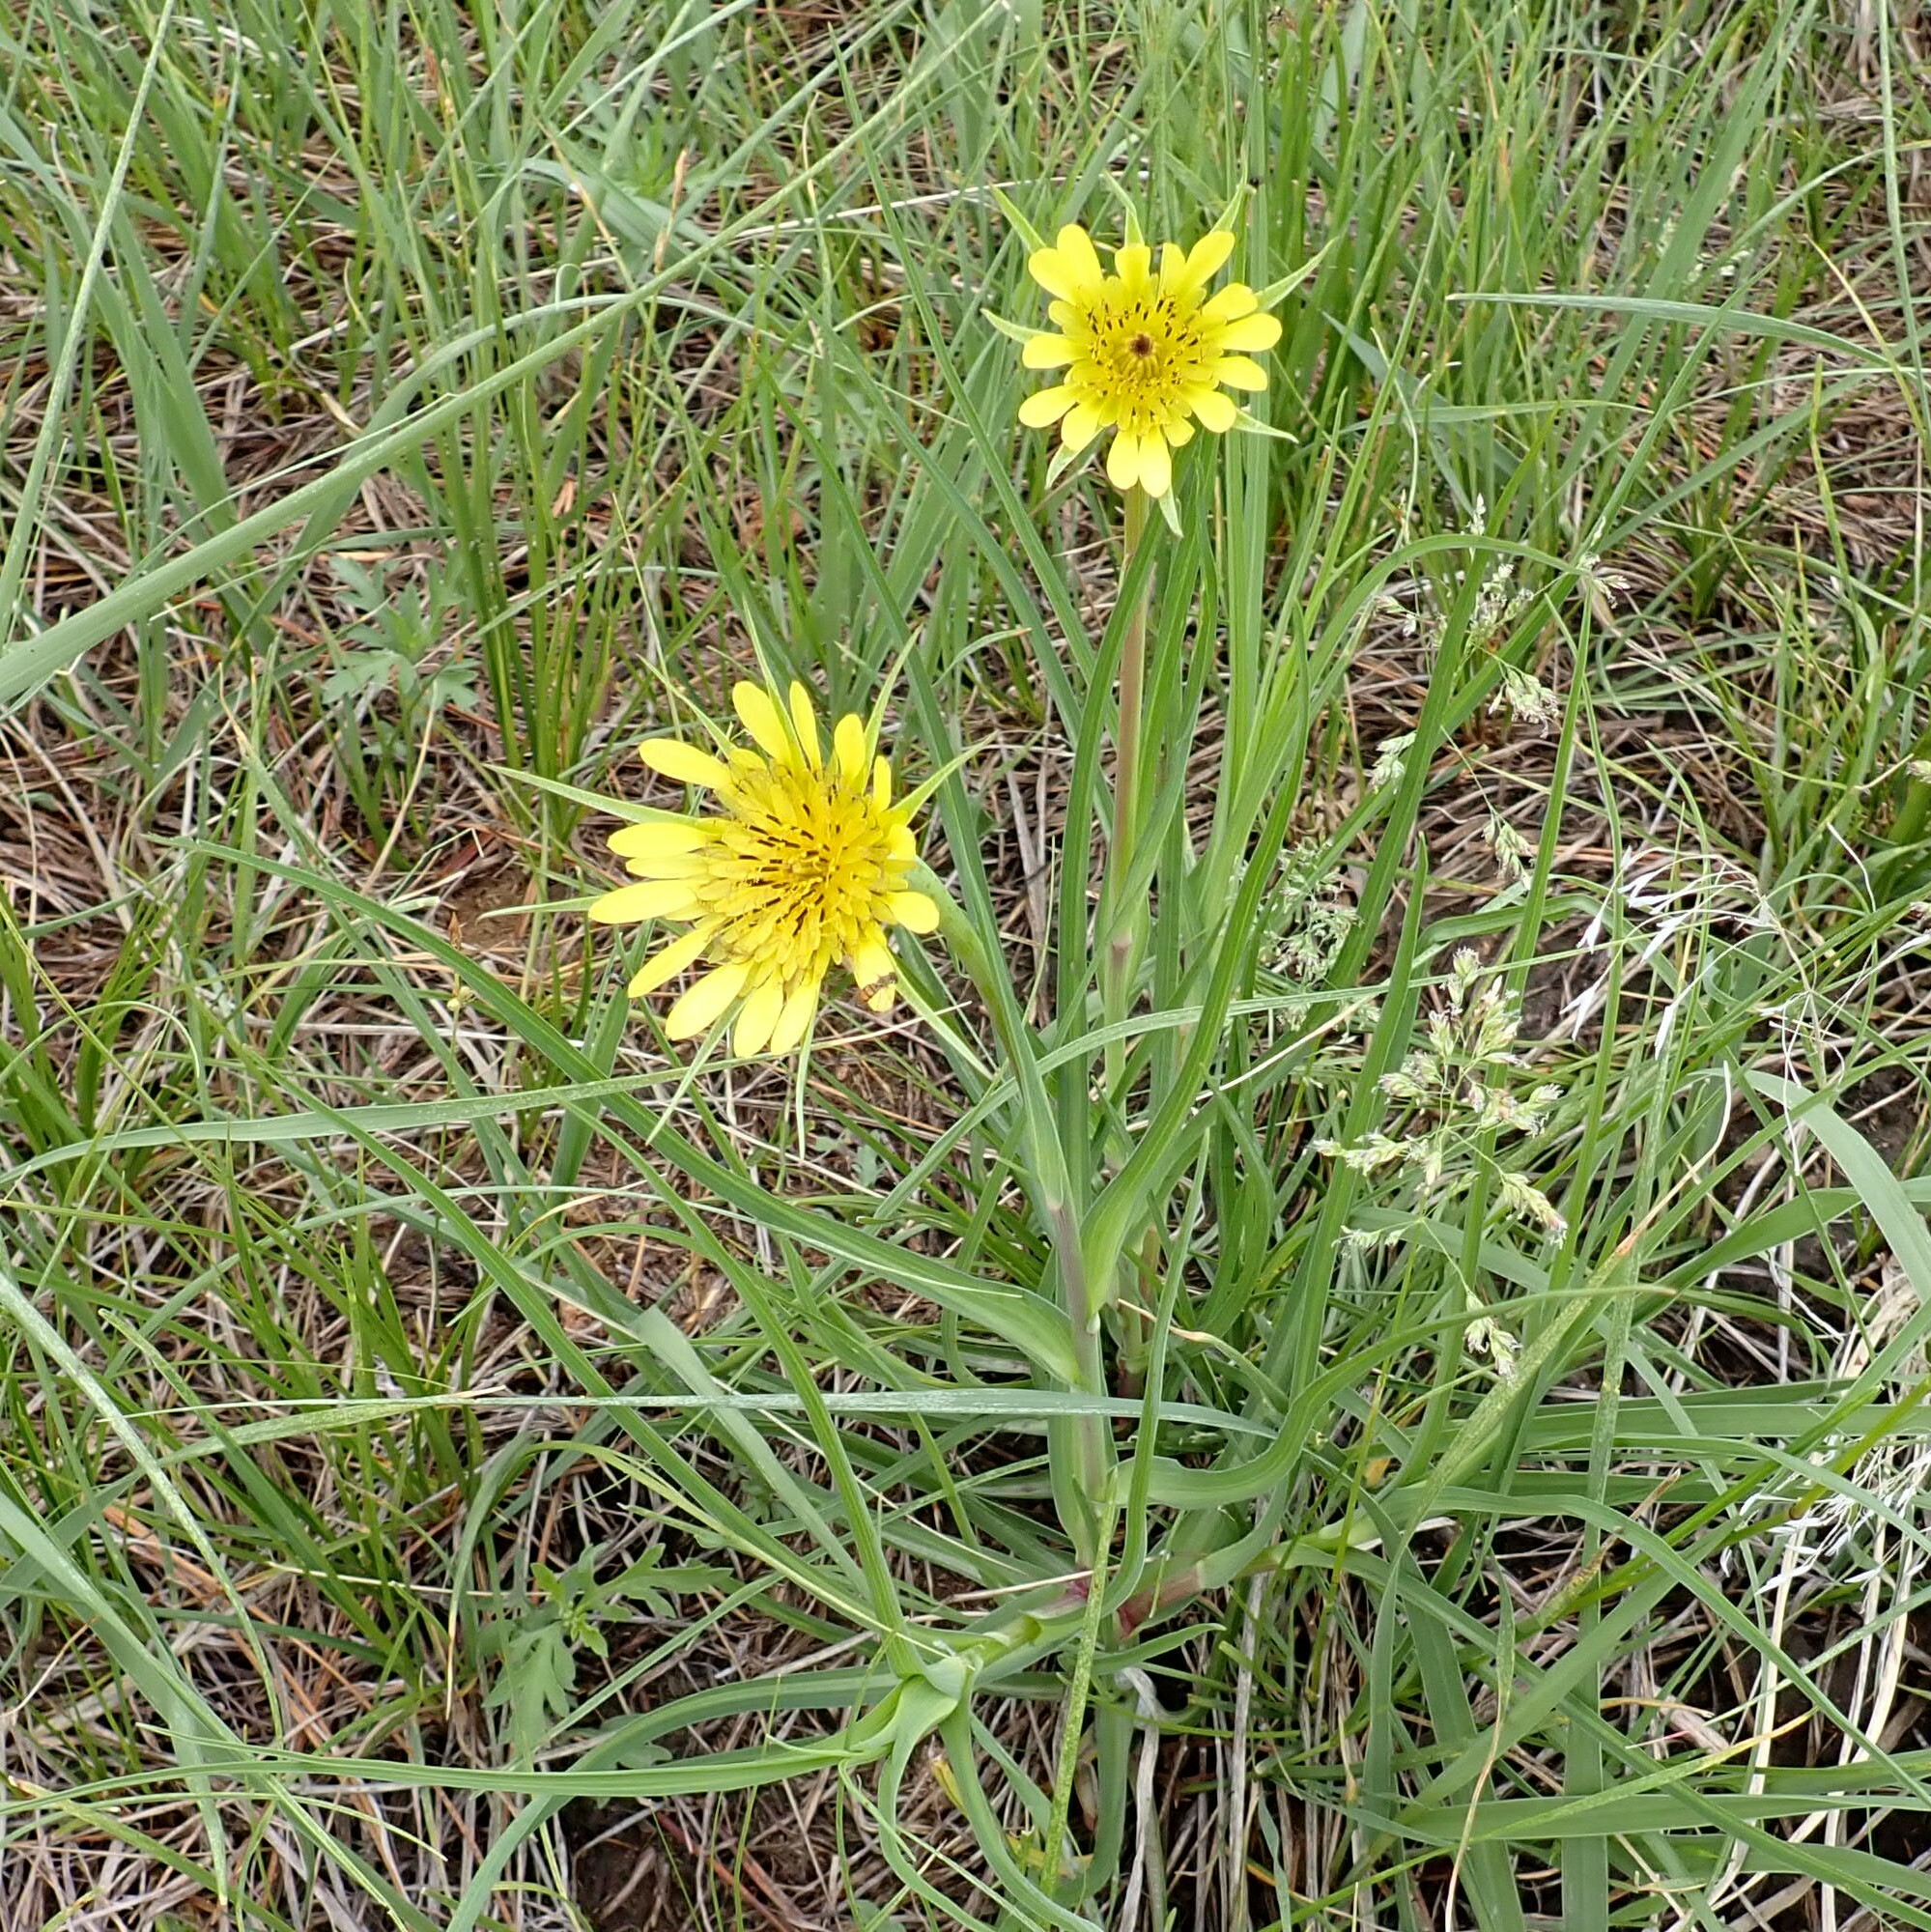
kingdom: Plantae
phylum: Tracheophyta
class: Magnoliopsida
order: Asterales
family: Asteraceae
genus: Tragopogon
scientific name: Tragopogon dubius
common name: Yellow salsify
